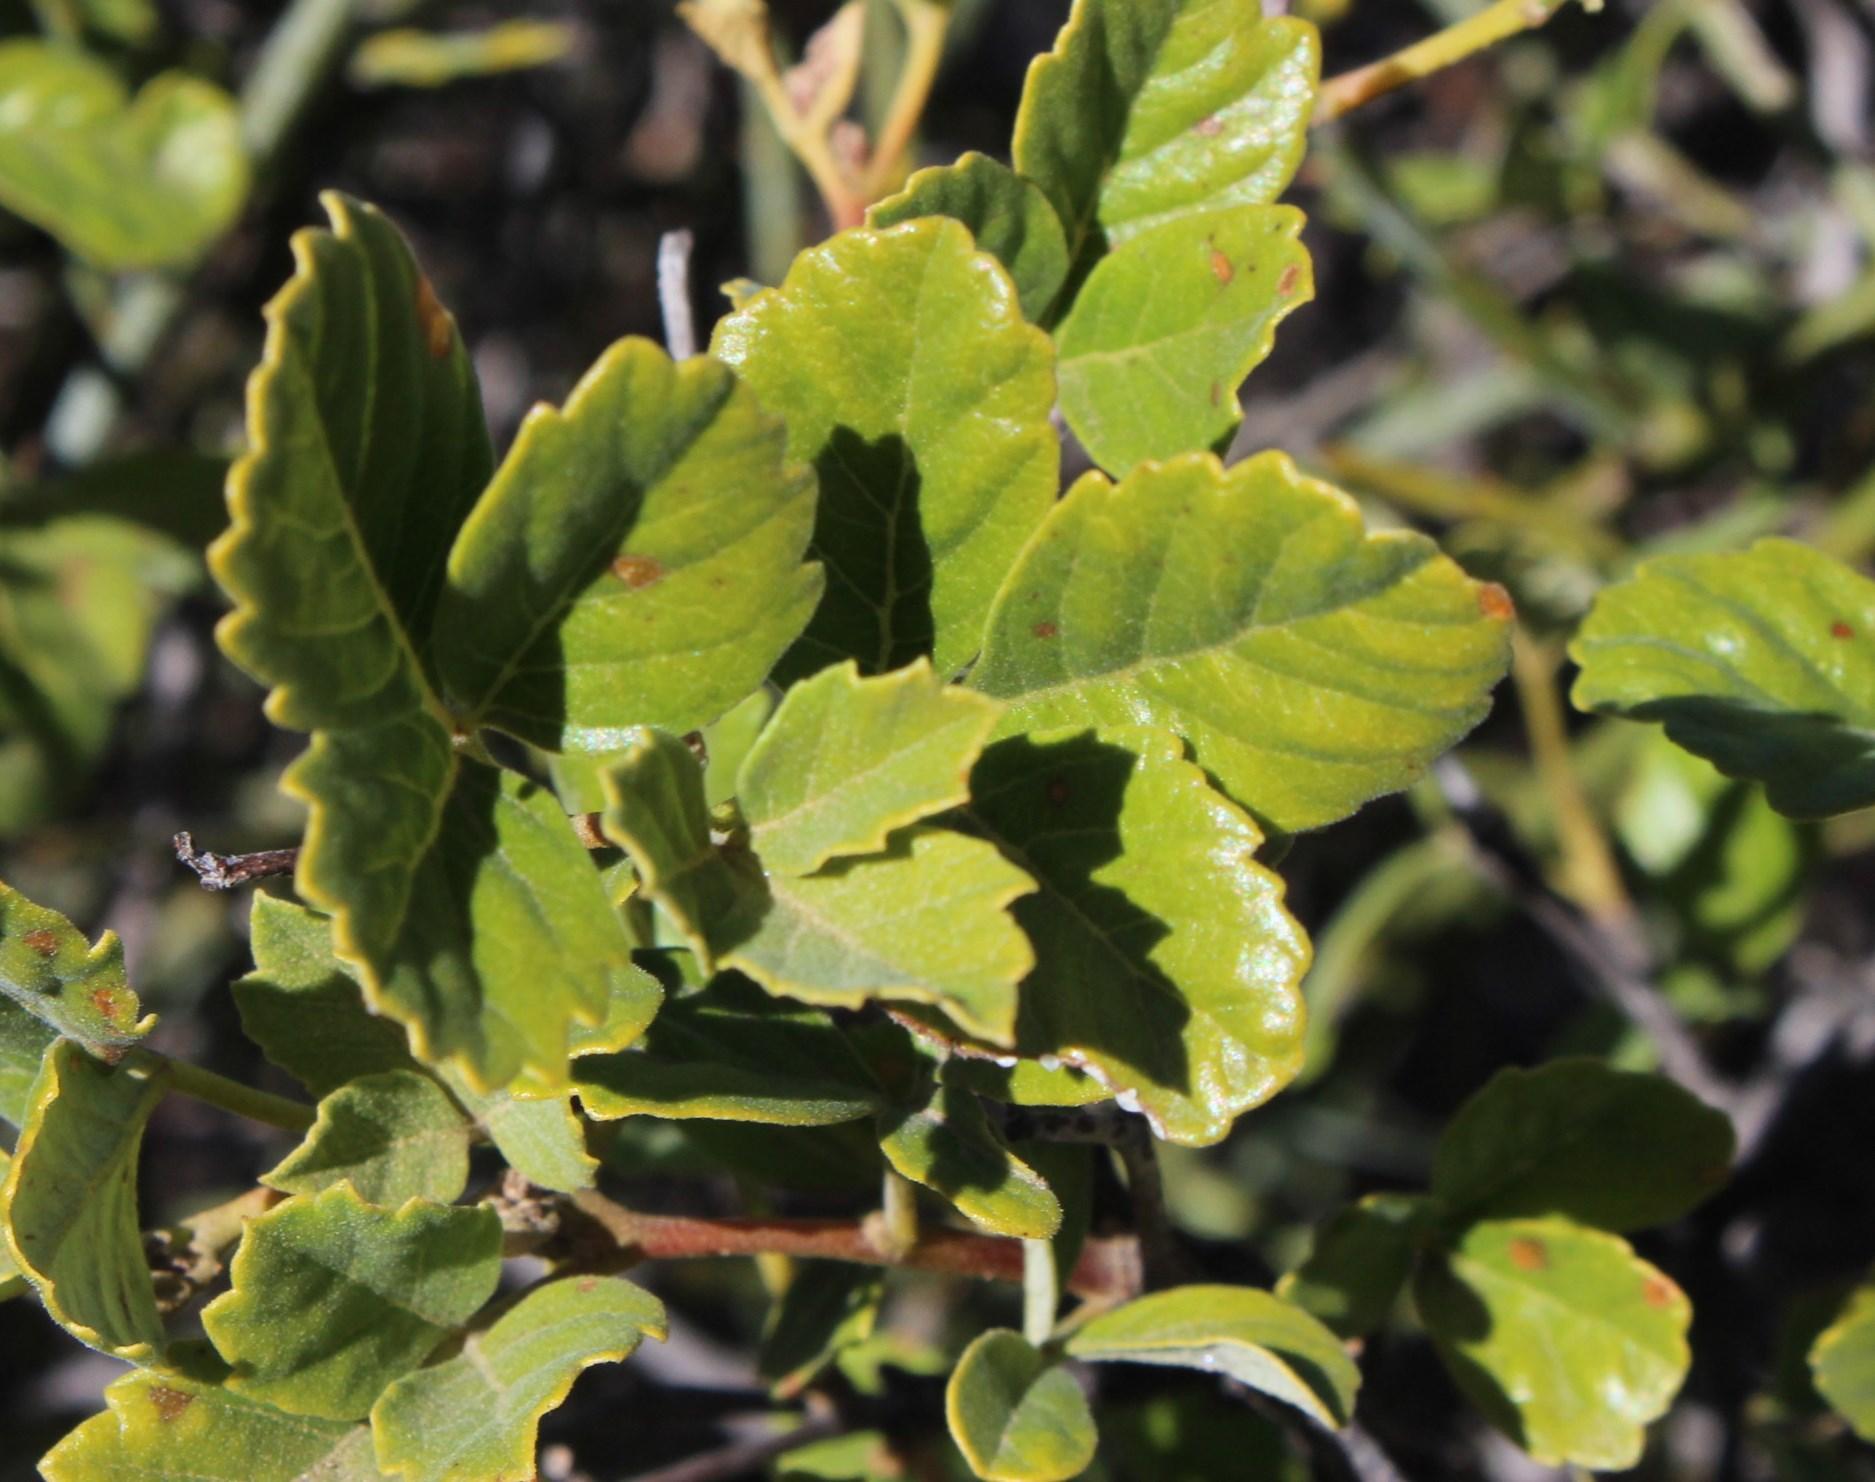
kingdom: Plantae
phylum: Tracheophyta
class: Magnoliopsida
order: Sapindales
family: Anacardiaceae
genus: Searsia
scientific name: Searsia populifolia
